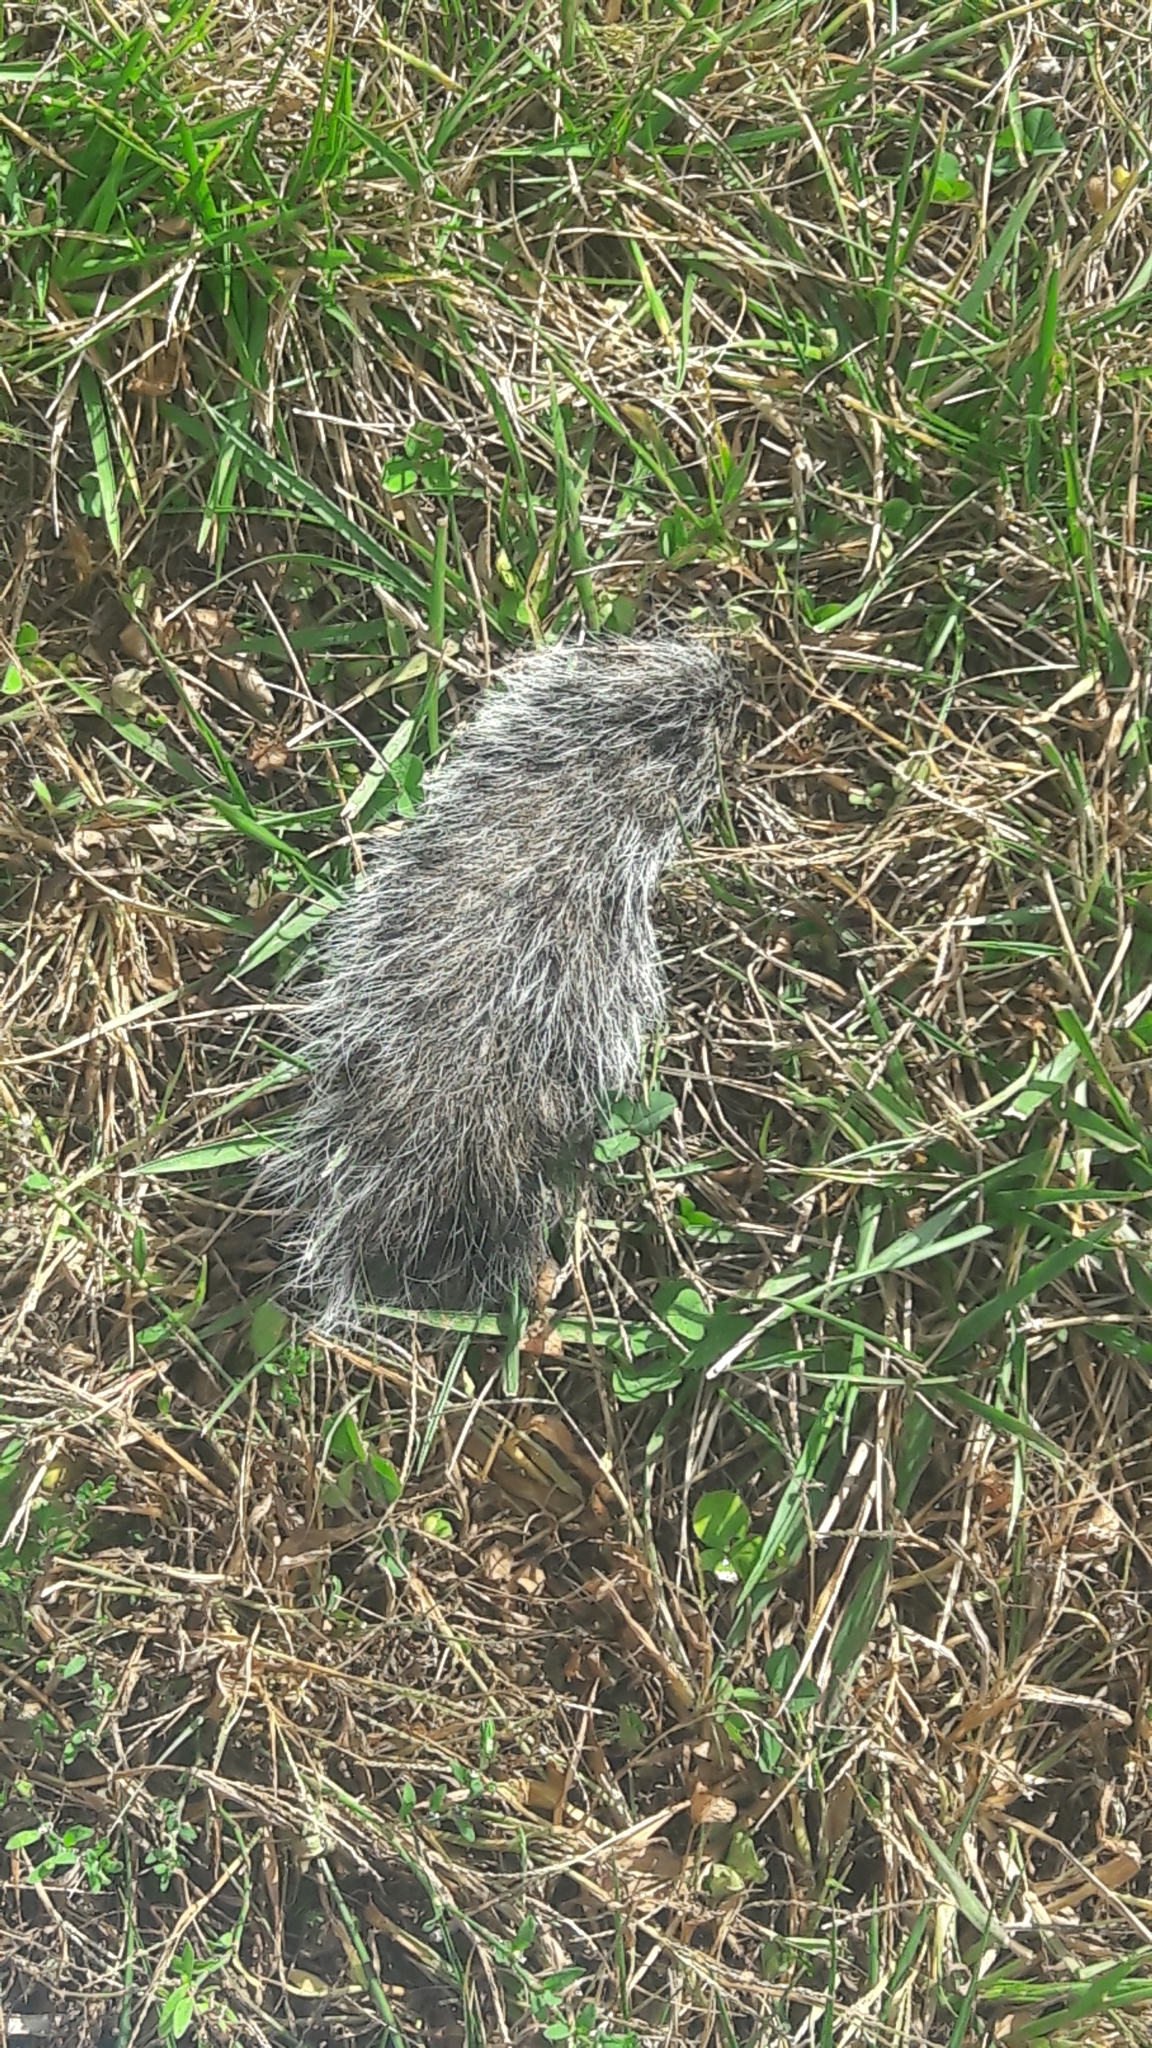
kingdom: Animalia
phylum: Chordata
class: Mammalia
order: Rodentia
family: Sciuridae
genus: Sciurus
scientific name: Sciurus carolinensis
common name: Eastern gray squirrel
